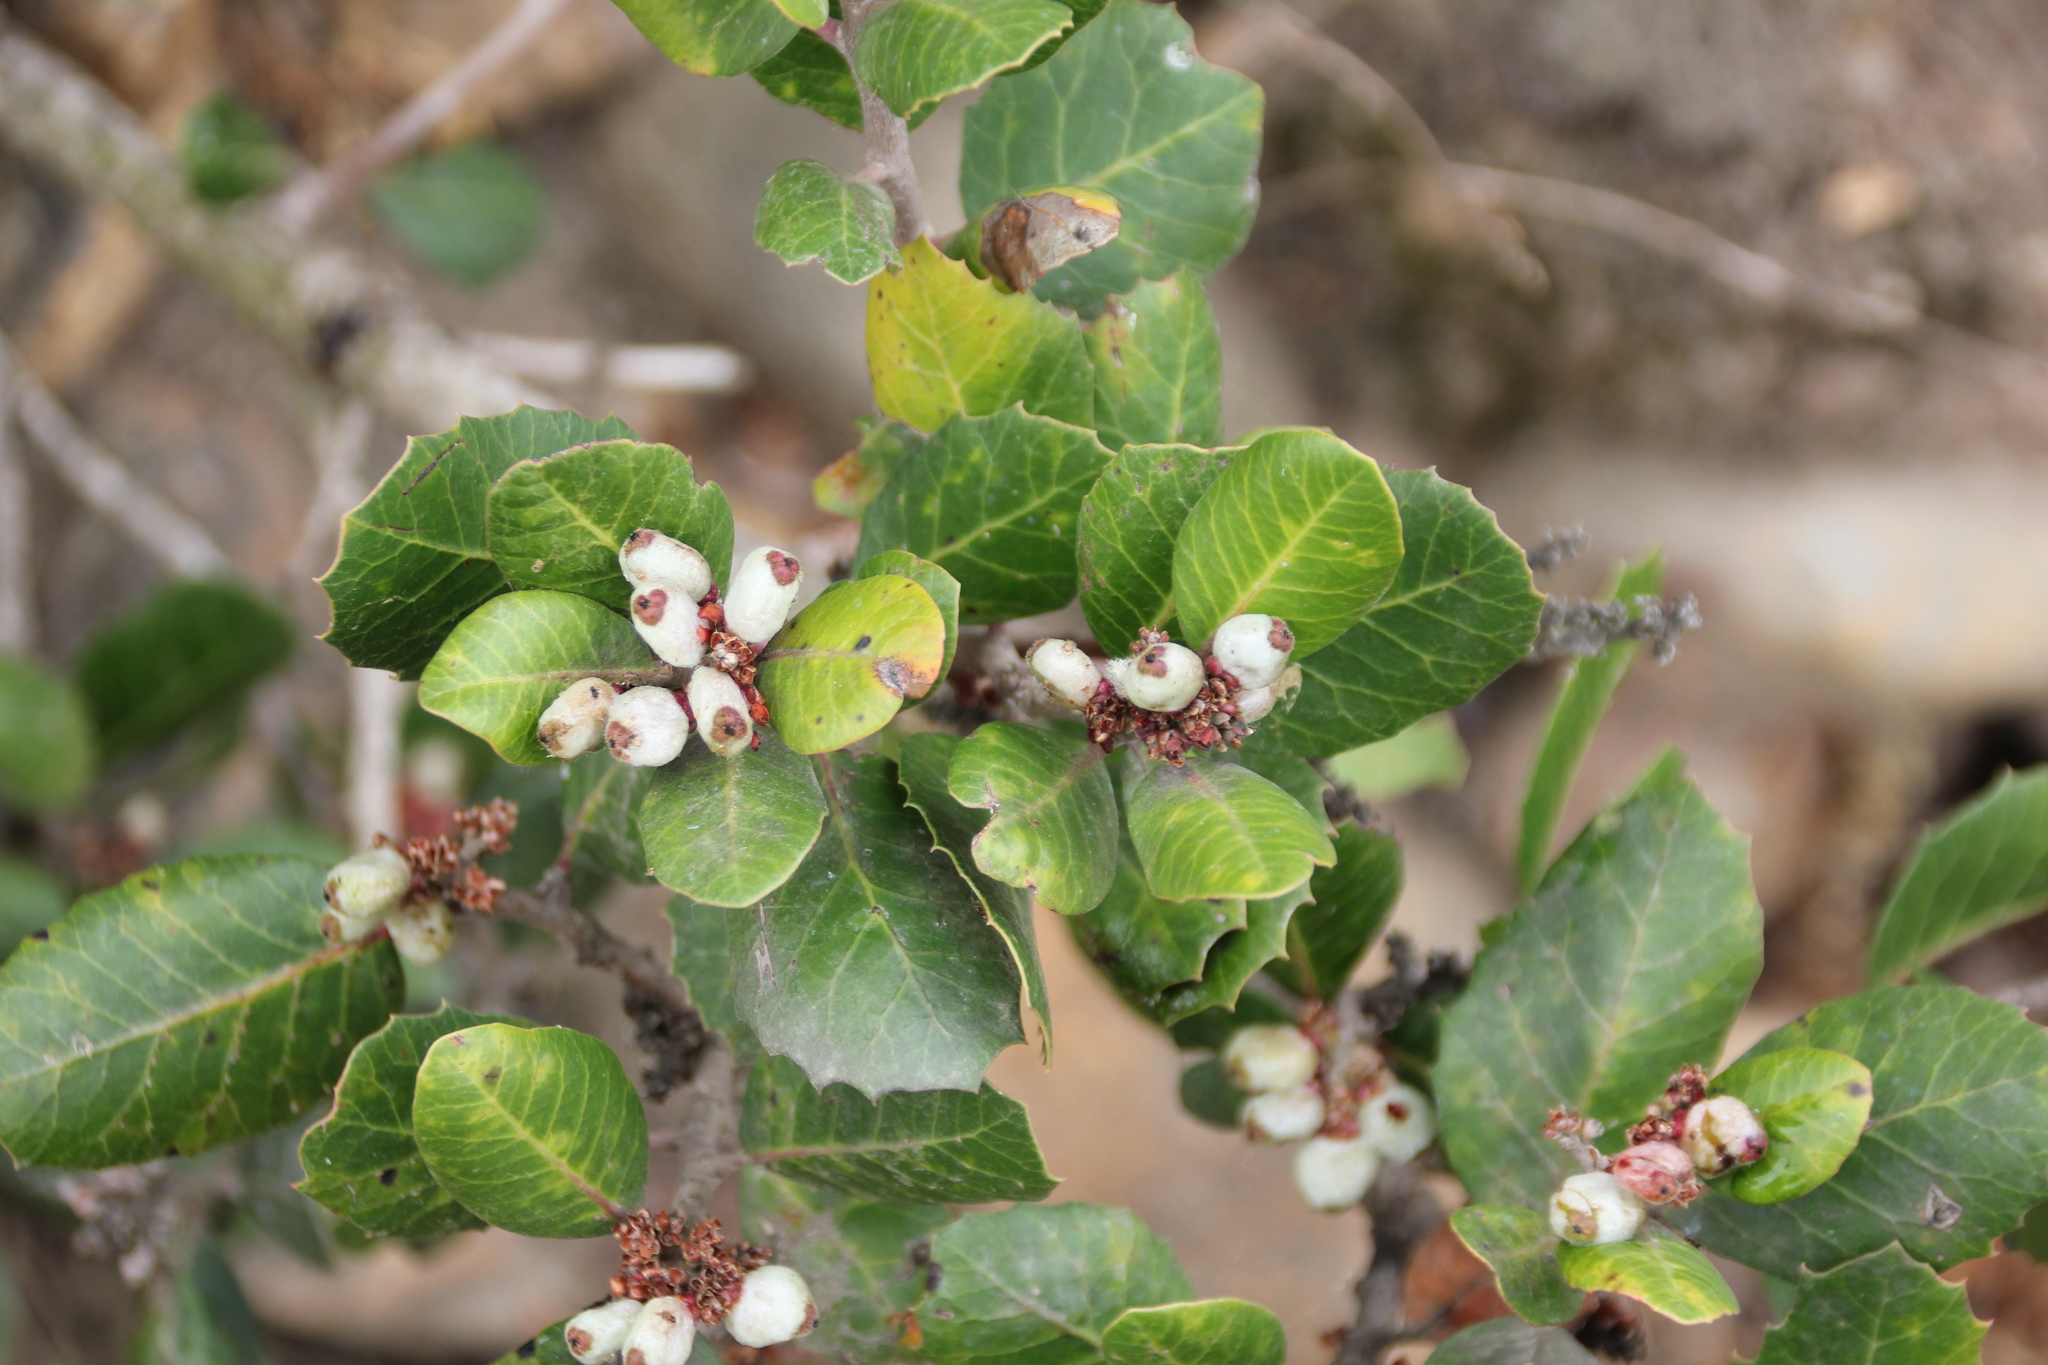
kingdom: Plantae
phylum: Tracheophyta
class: Magnoliopsida
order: Sapindales
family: Anacardiaceae
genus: Rhus
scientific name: Rhus integrifolia
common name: Lemonade sumac
